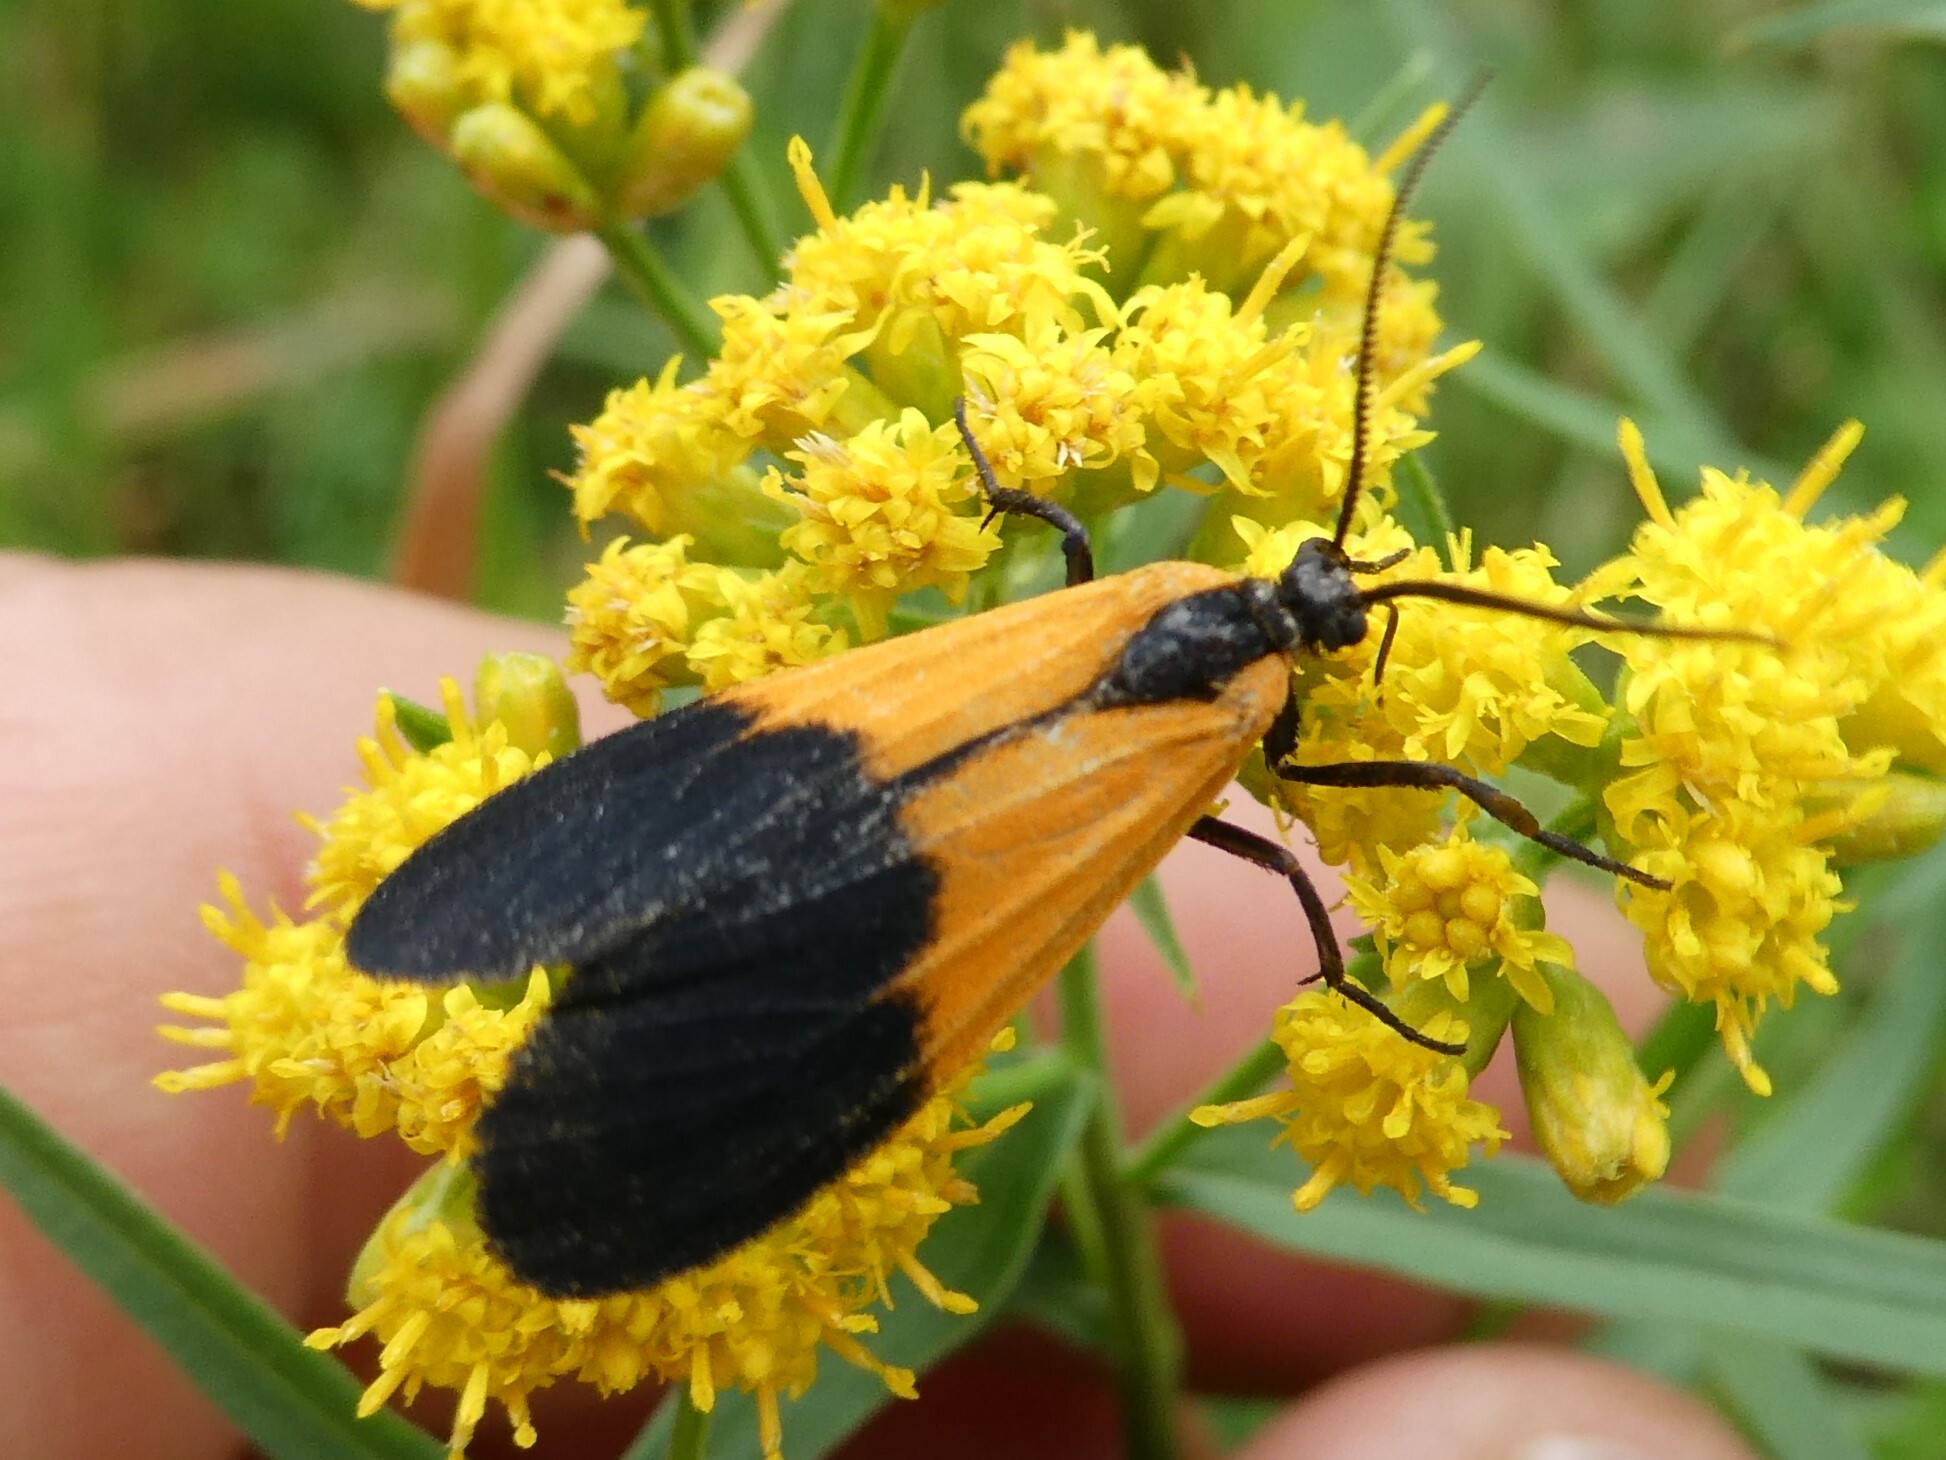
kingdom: Animalia
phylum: Arthropoda
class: Insecta
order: Lepidoptera
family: Erebidae
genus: Lycomorpha
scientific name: Lycomorpha pholus
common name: Black-and-yellow lichen moth
